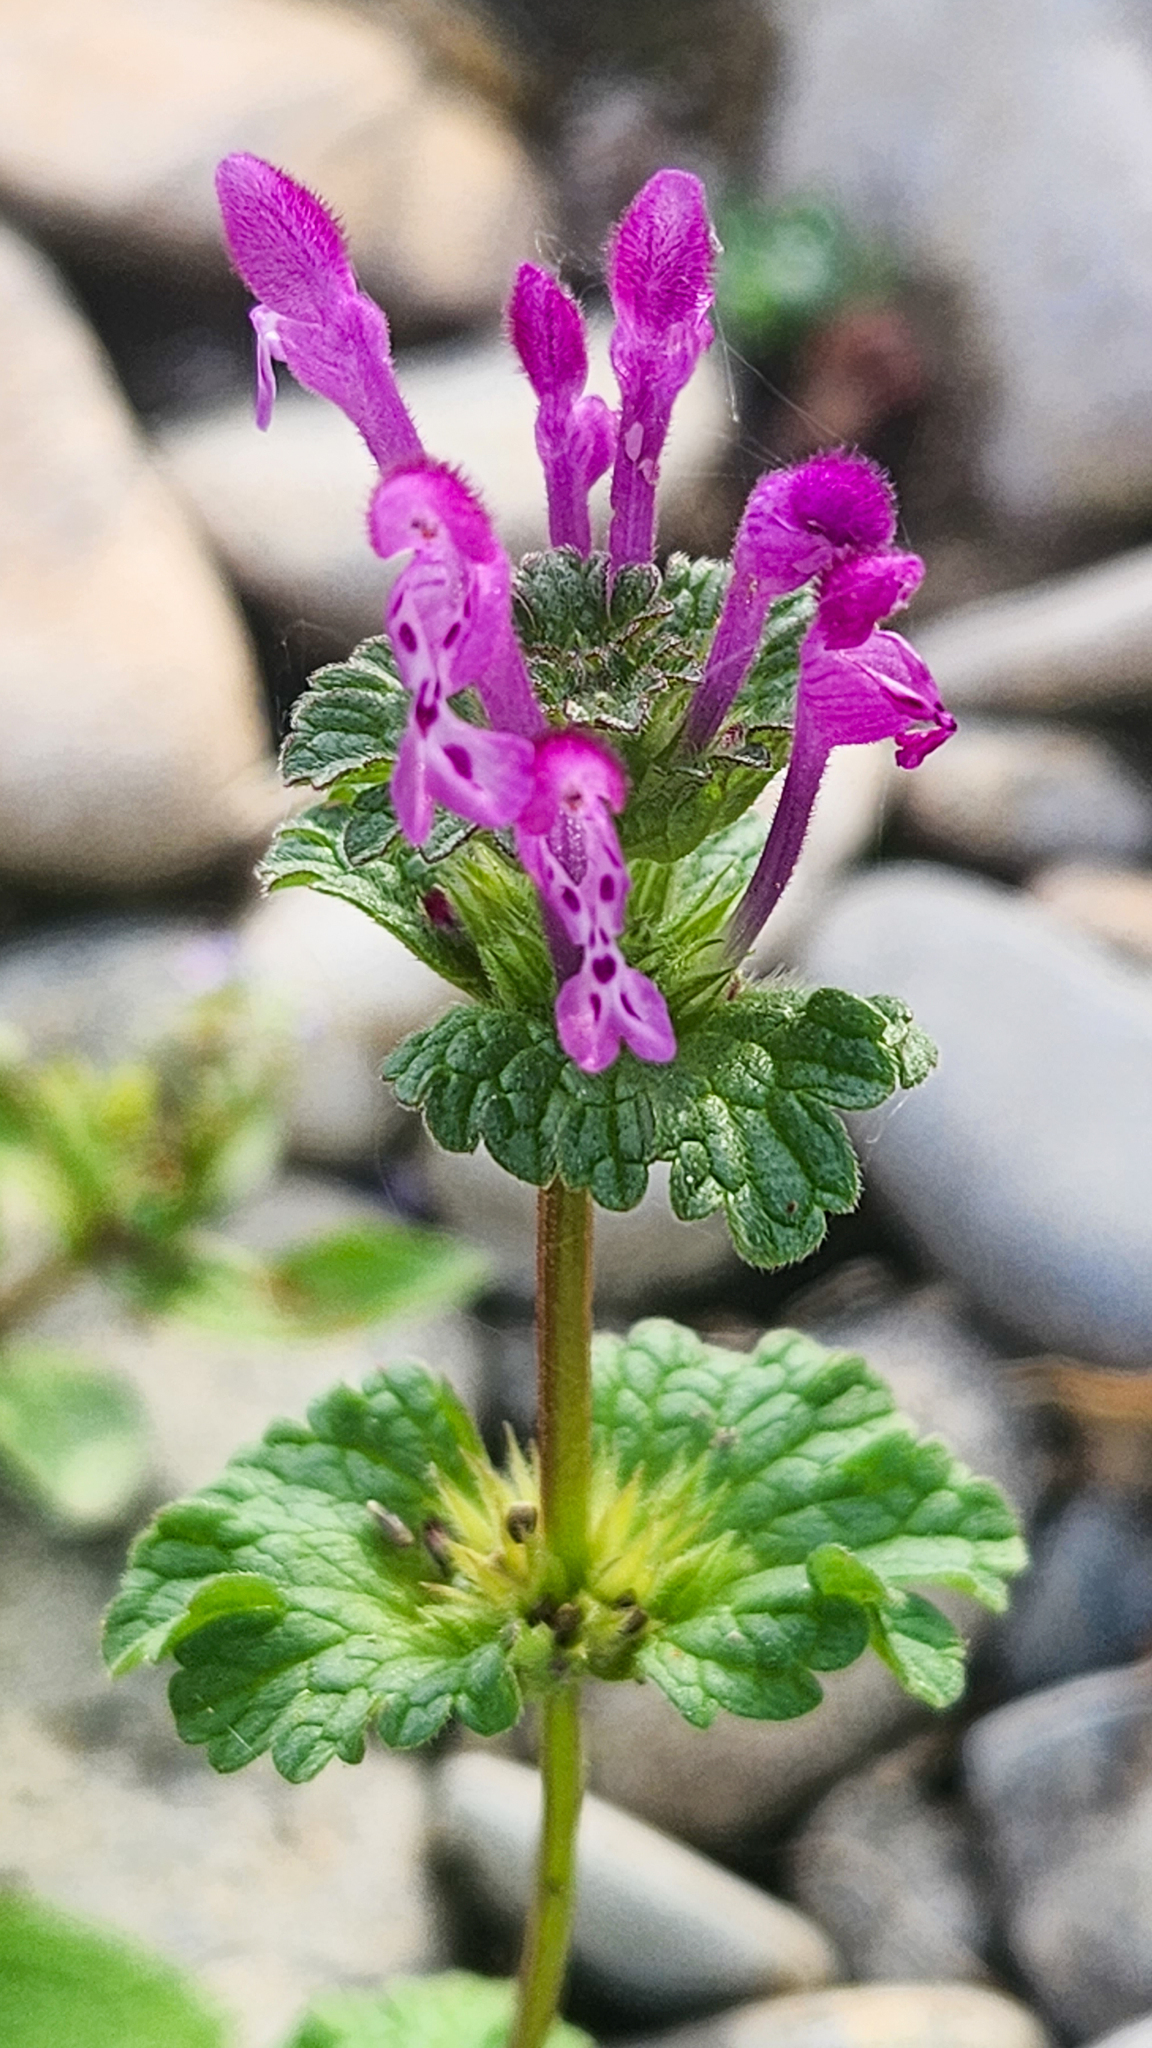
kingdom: Plantae
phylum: Tracheophyta
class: Magnoliopsida
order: Lamiales
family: Lamiaceae
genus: Lamium
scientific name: Lamium amplexicaule
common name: Henbit dead-nettle
